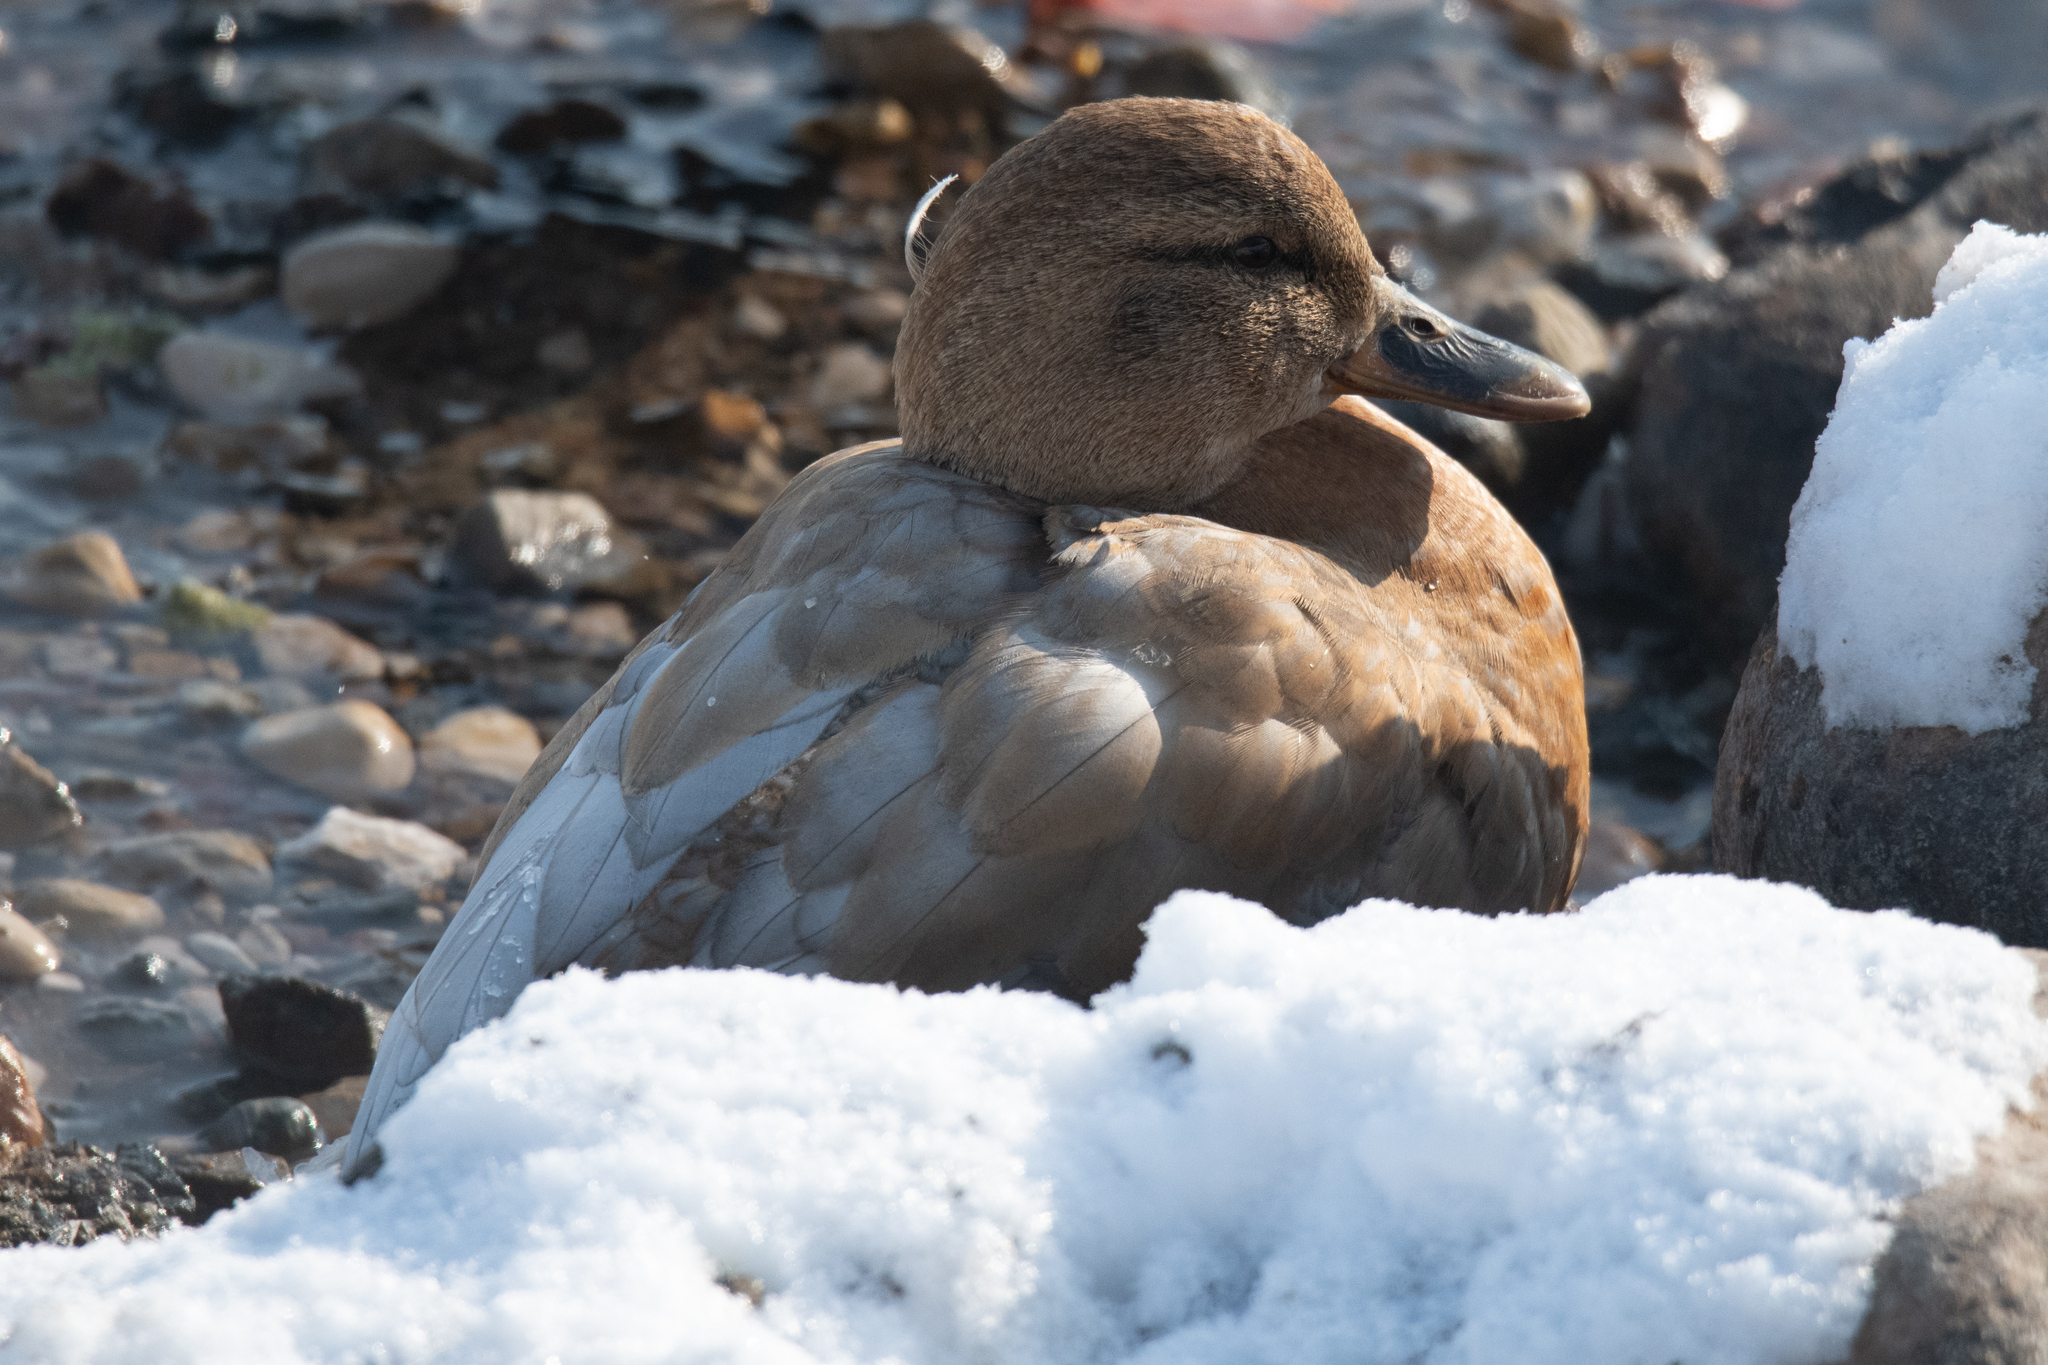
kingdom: Animalia
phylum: Chordata
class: Aves
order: Anseriformes
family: Anatidae
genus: Anas
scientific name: Anas platyrhynchos
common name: Mallard
